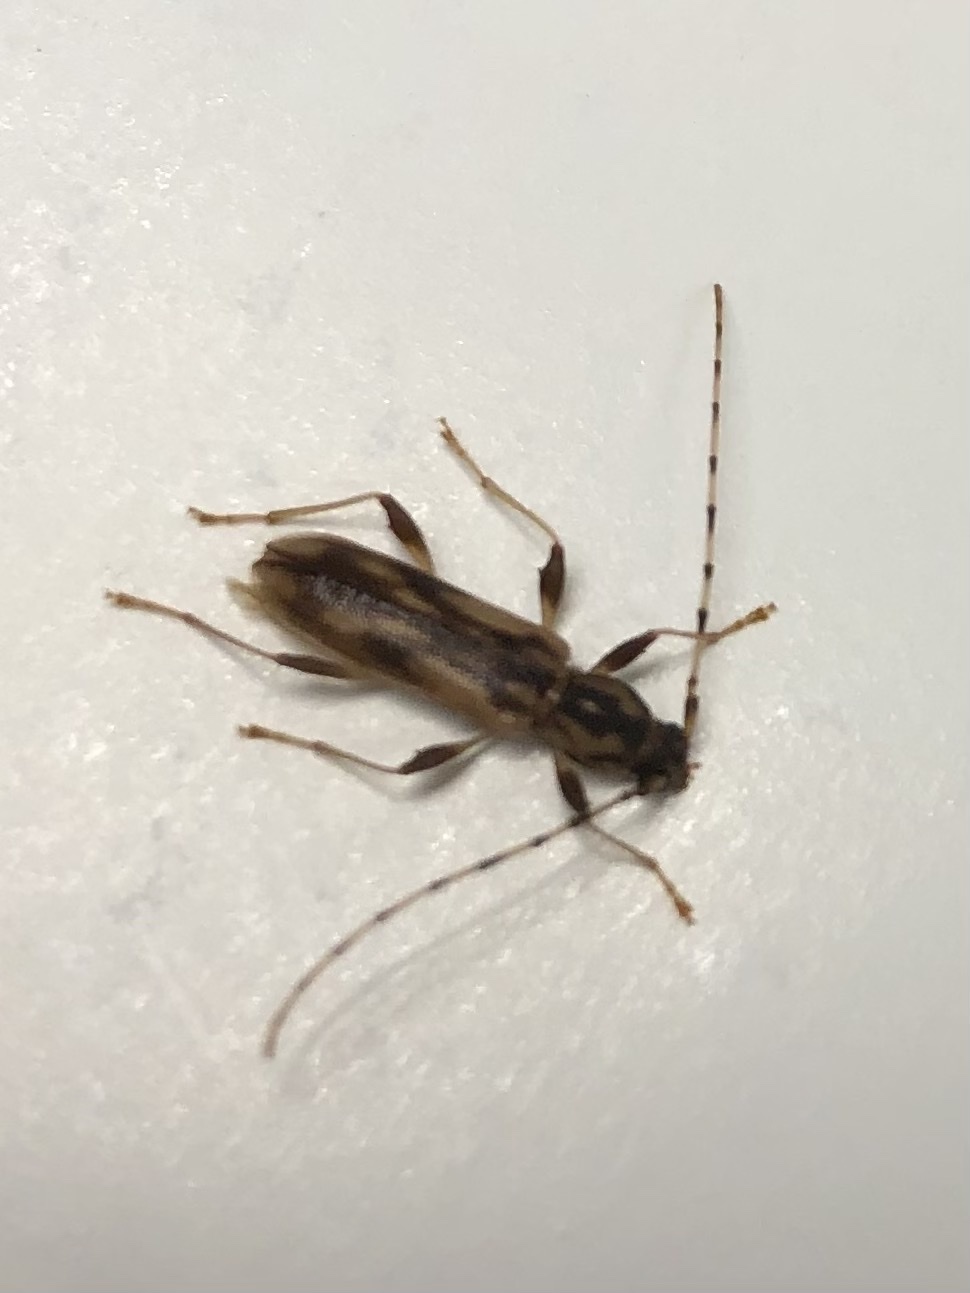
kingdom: Animalia
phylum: Arthropoda
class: Insecta
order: Coleoptera
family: Cerambycidae
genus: Curius
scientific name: Curius dentatus
